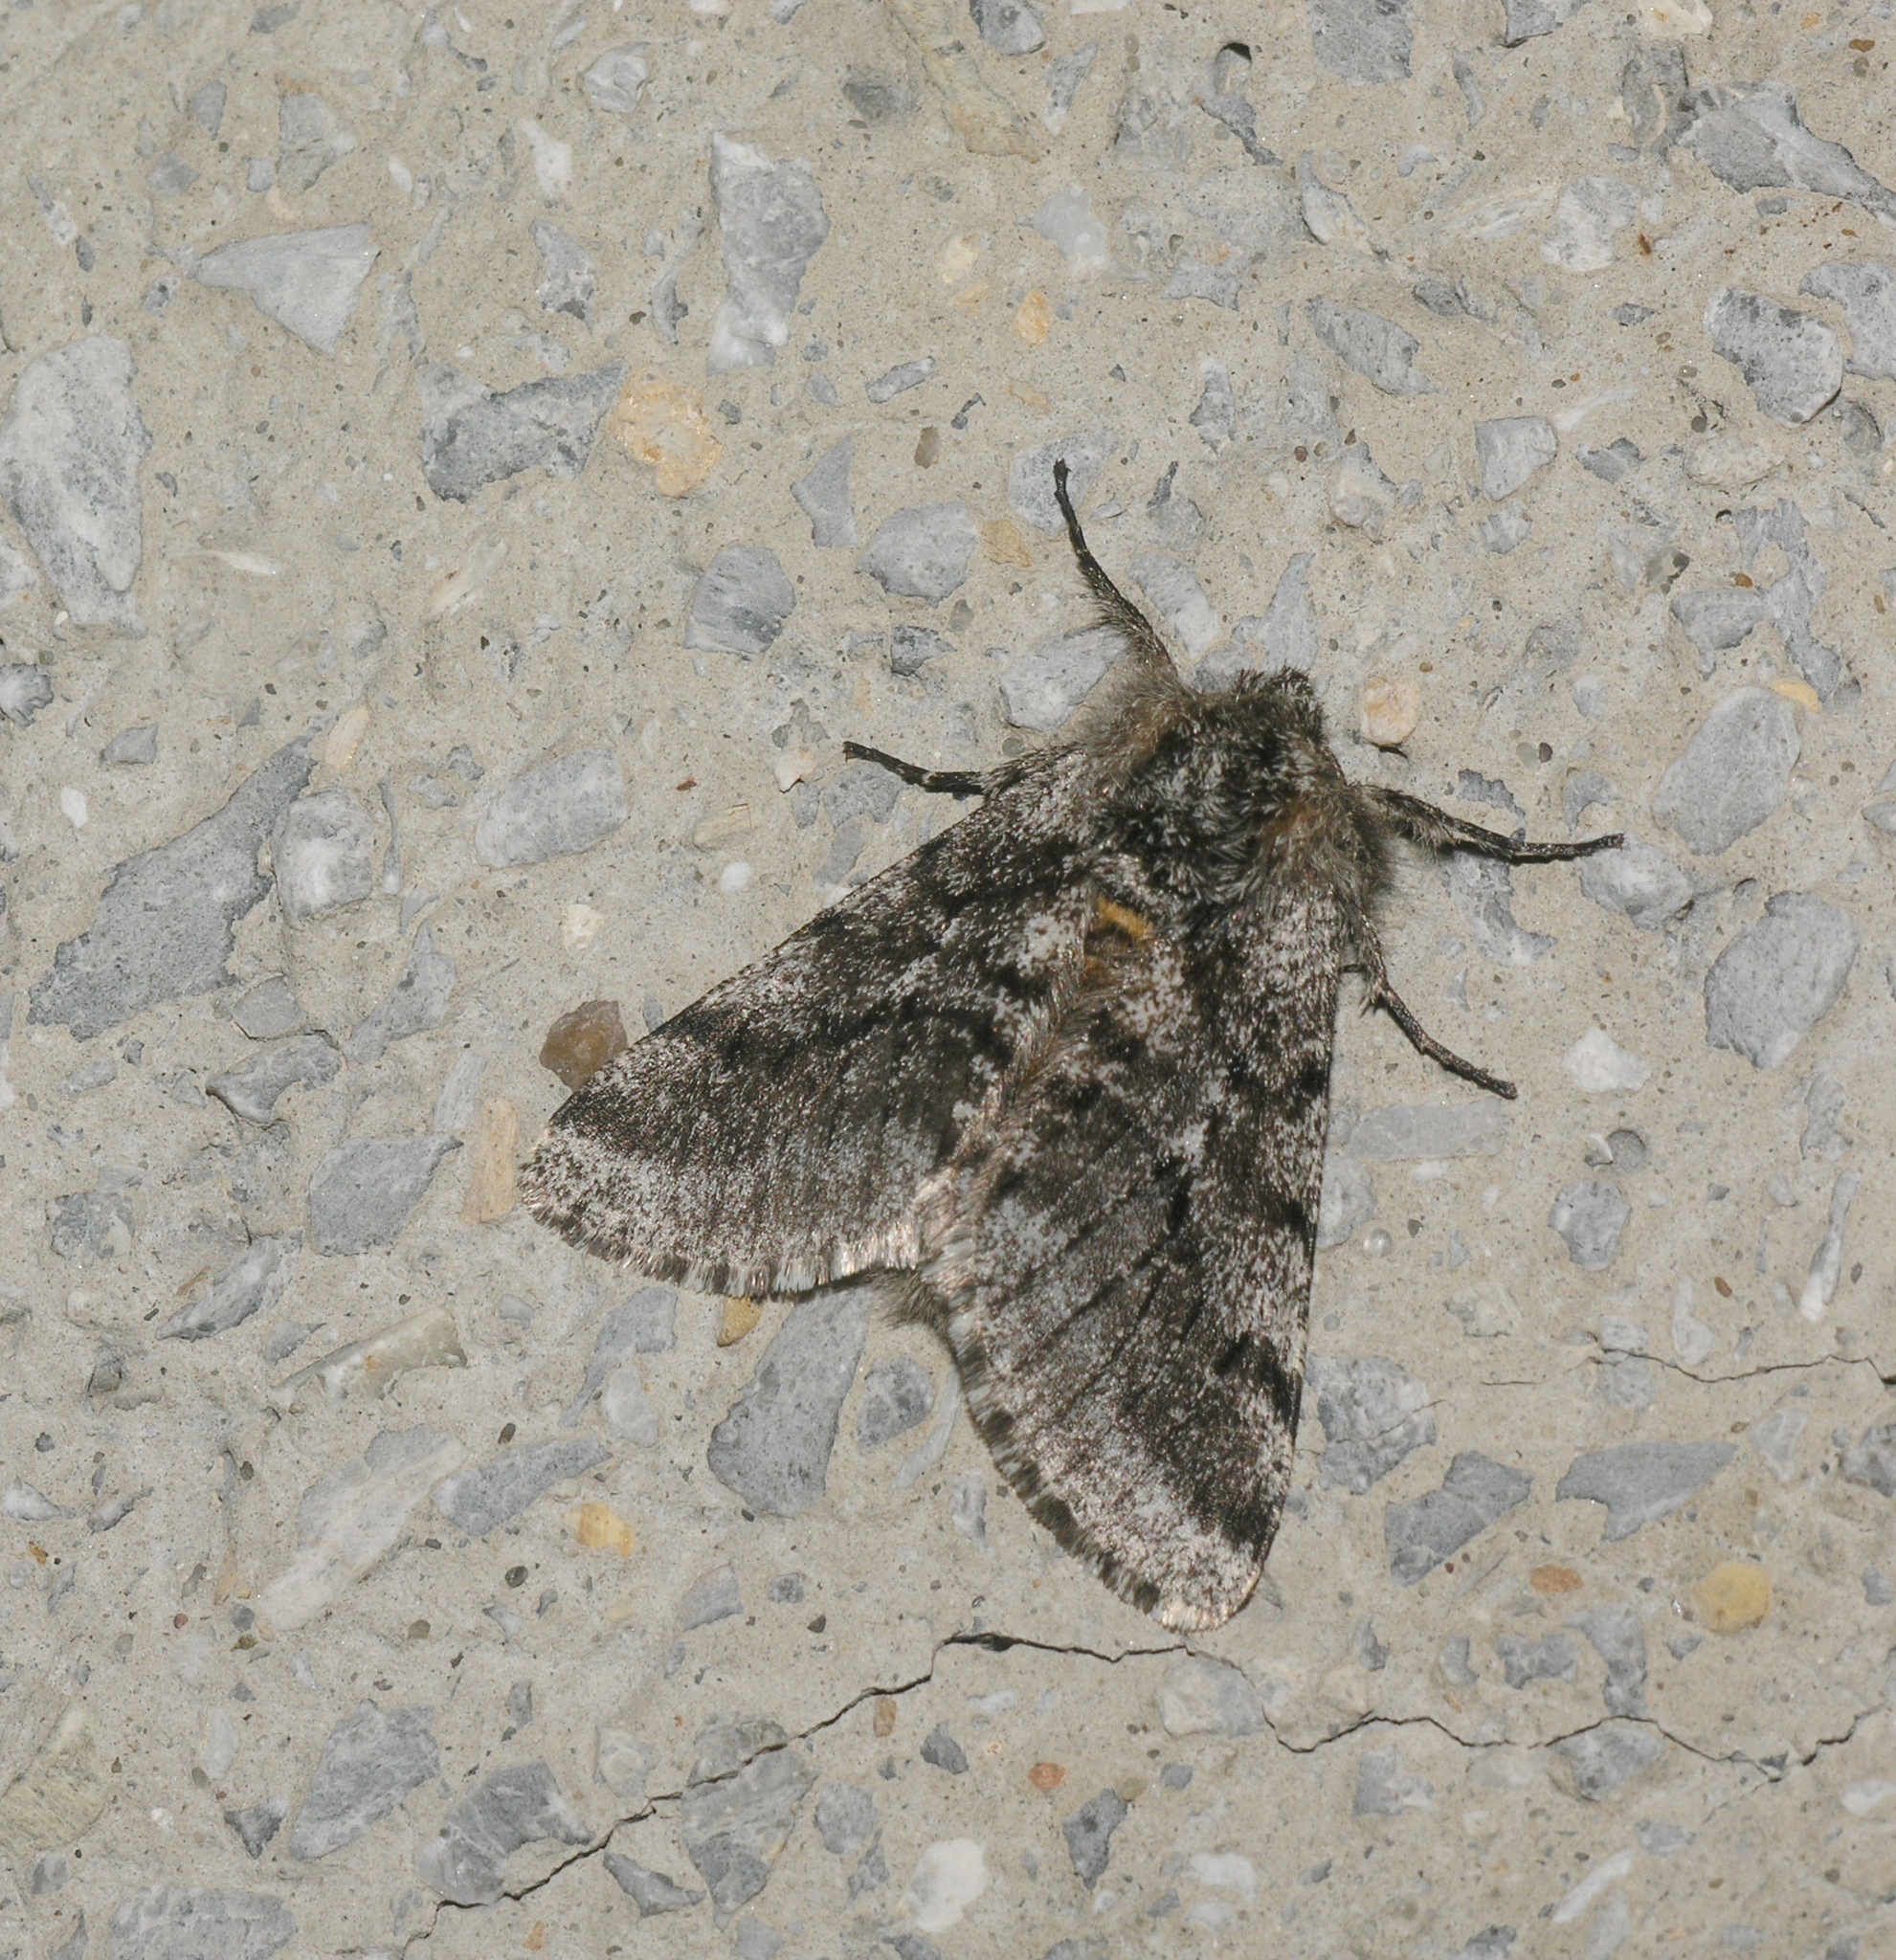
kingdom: Animalia
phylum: Arthropoda
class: Insecta
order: Lepidoptera
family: Geometridae
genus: Lycia
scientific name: Lycia hirtaria
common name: Brindled beauty
